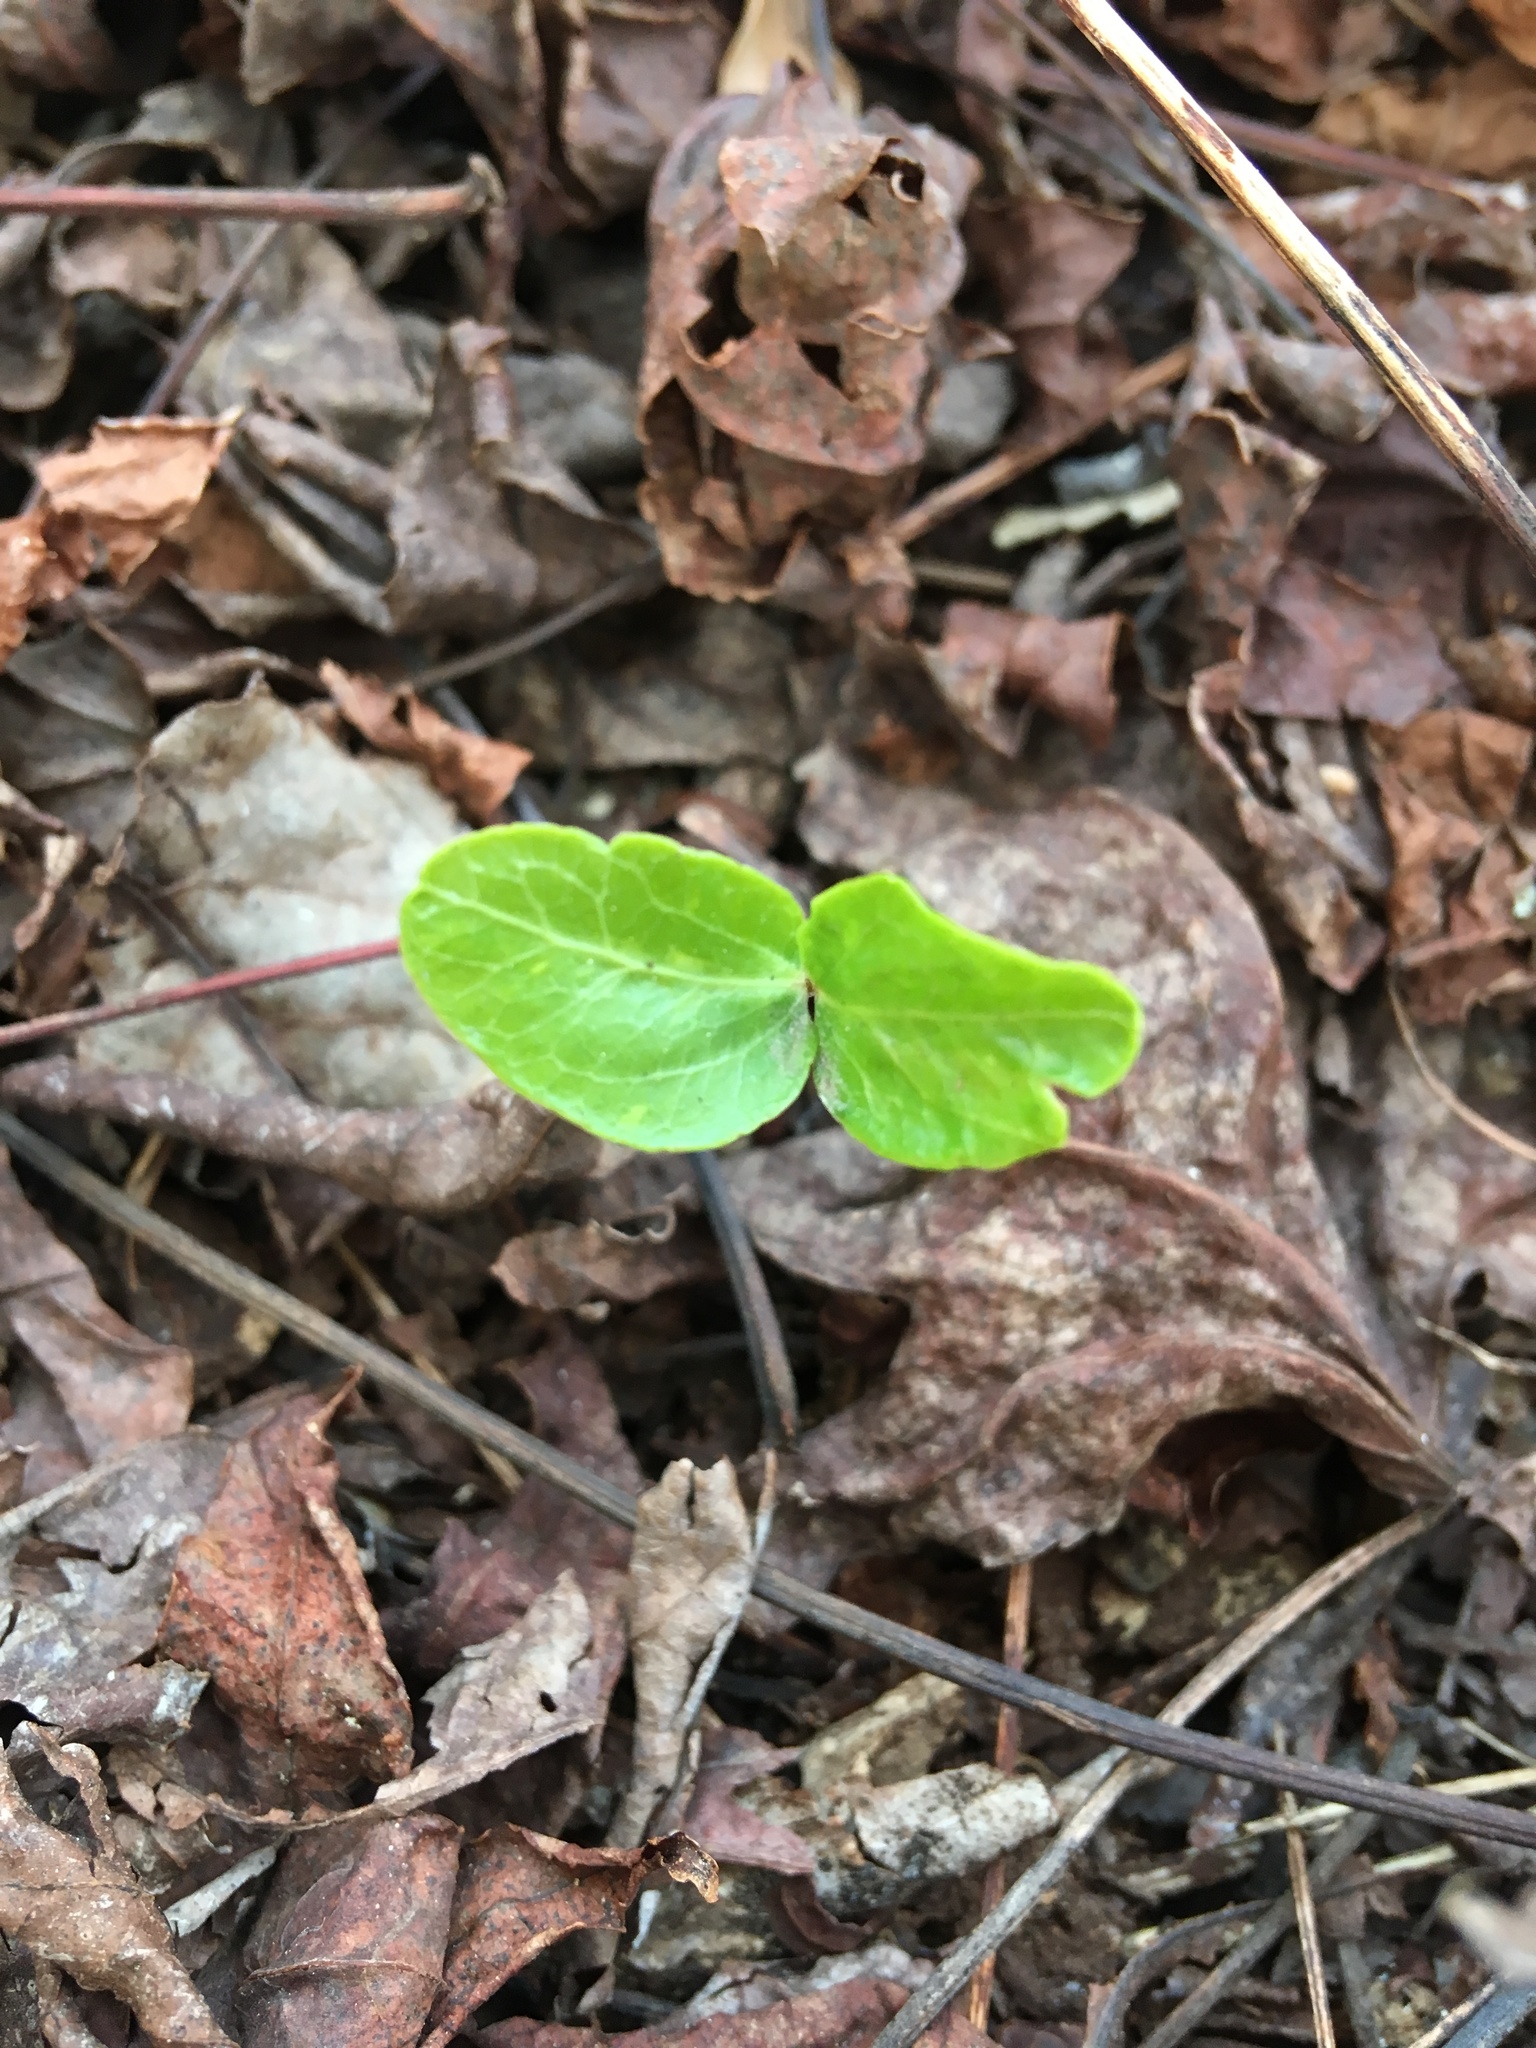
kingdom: Plantae
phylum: Tracheophyta
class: Magnoliopsida
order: Apiales
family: Araliaceae
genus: Hedera
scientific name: Hedera helix
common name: Ivy
